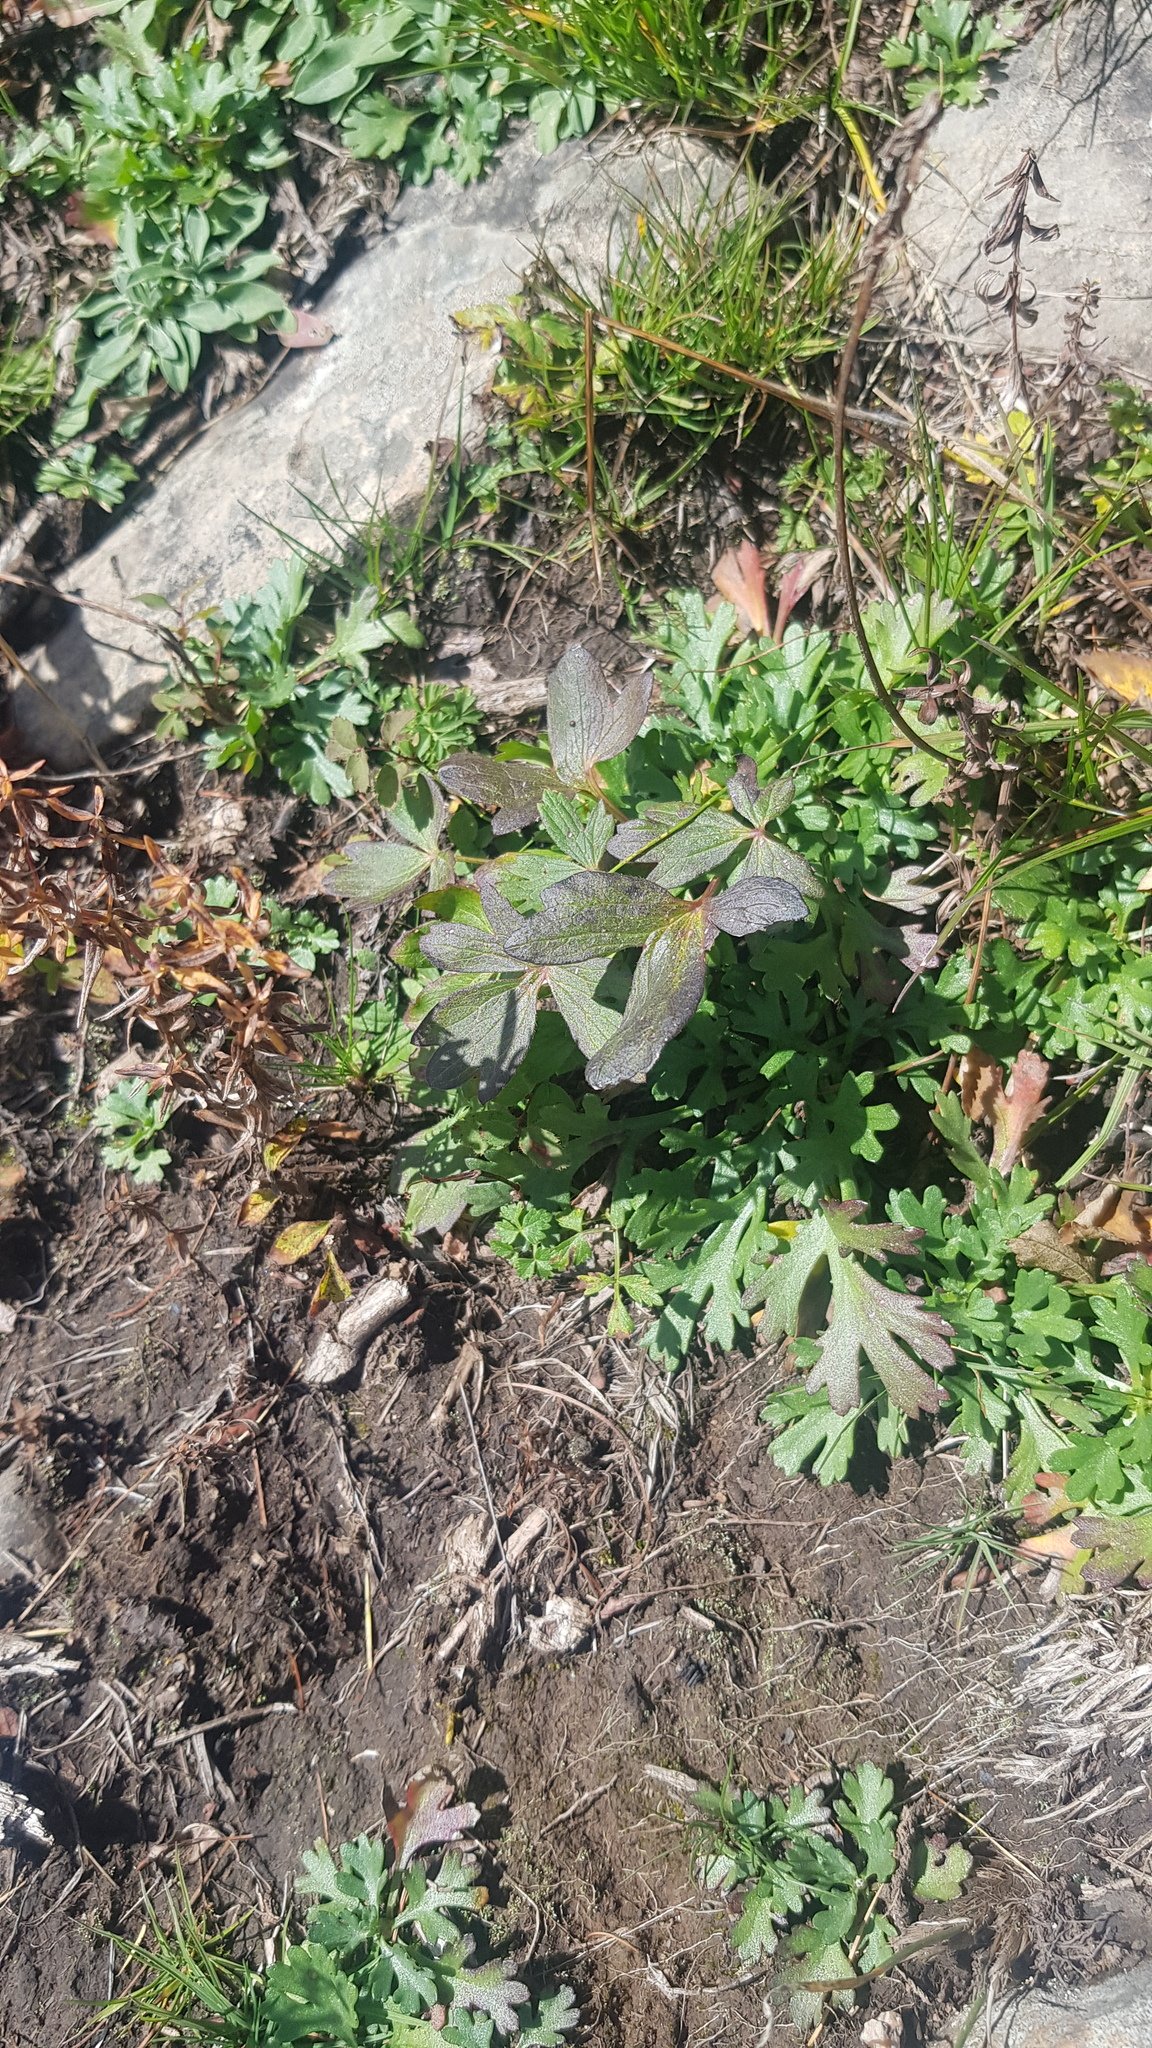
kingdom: Plantae
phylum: Tracheophyta
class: Magnoliopsida
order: Asterales
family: Asteraceae
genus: Chrysanthemum
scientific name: Chrysanthemum zawadzkii
